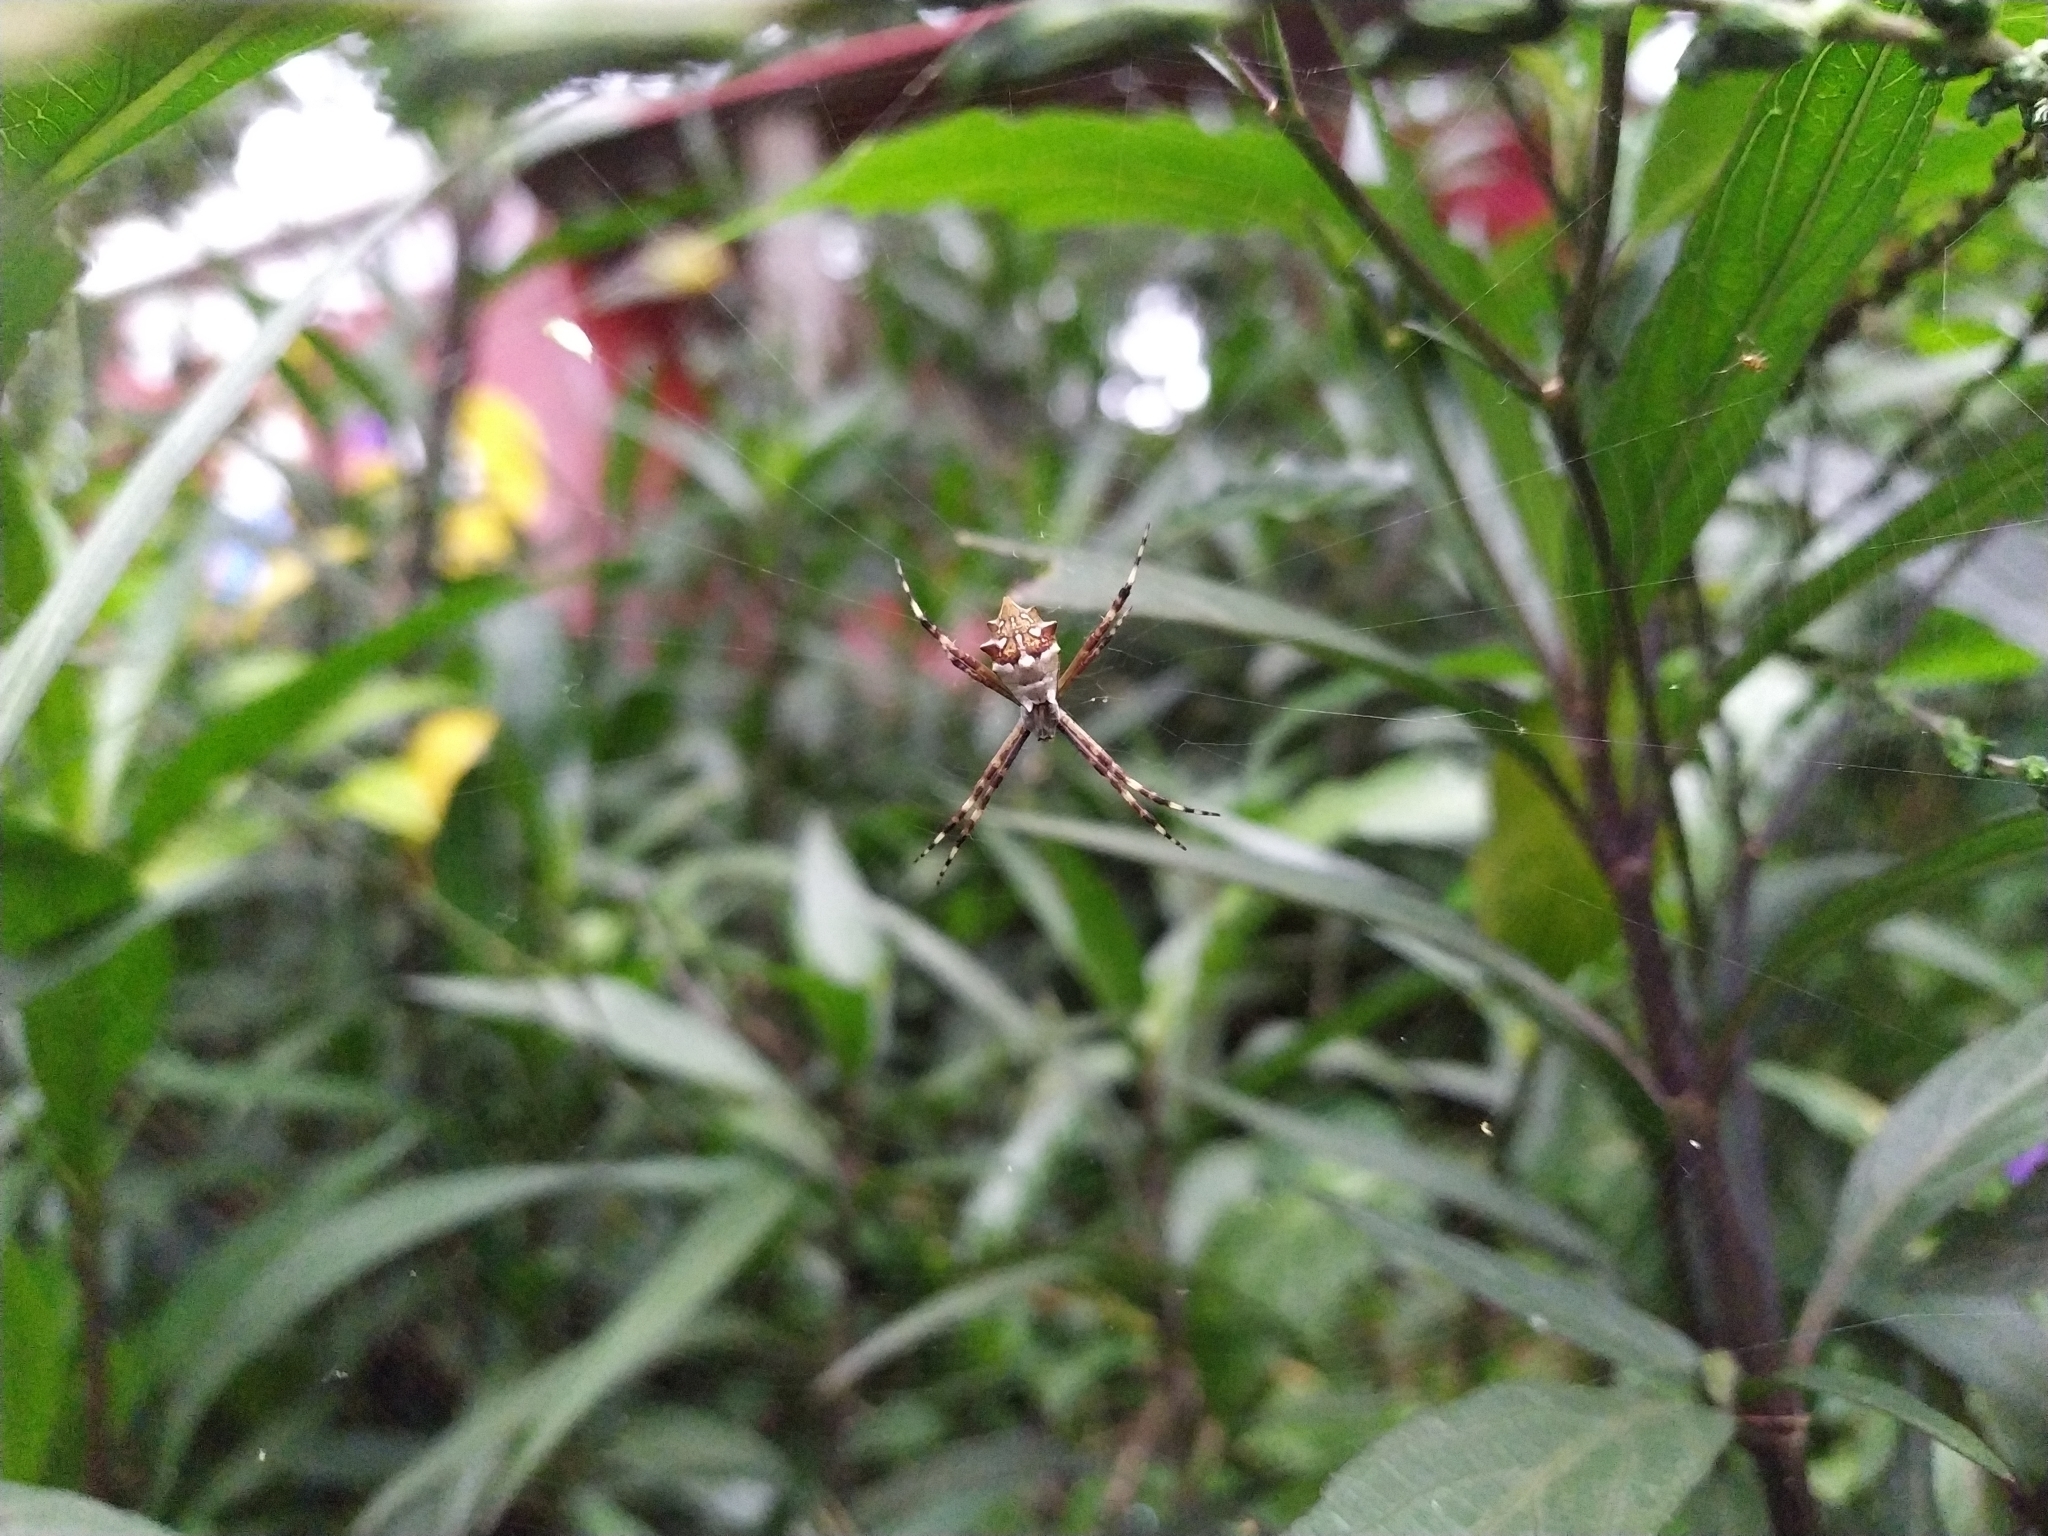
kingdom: Animalia
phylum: Arthropoda
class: Arachnida
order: Araneae
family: Araneidae
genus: Argiope
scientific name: Argiope argentata
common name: Orb weavers
